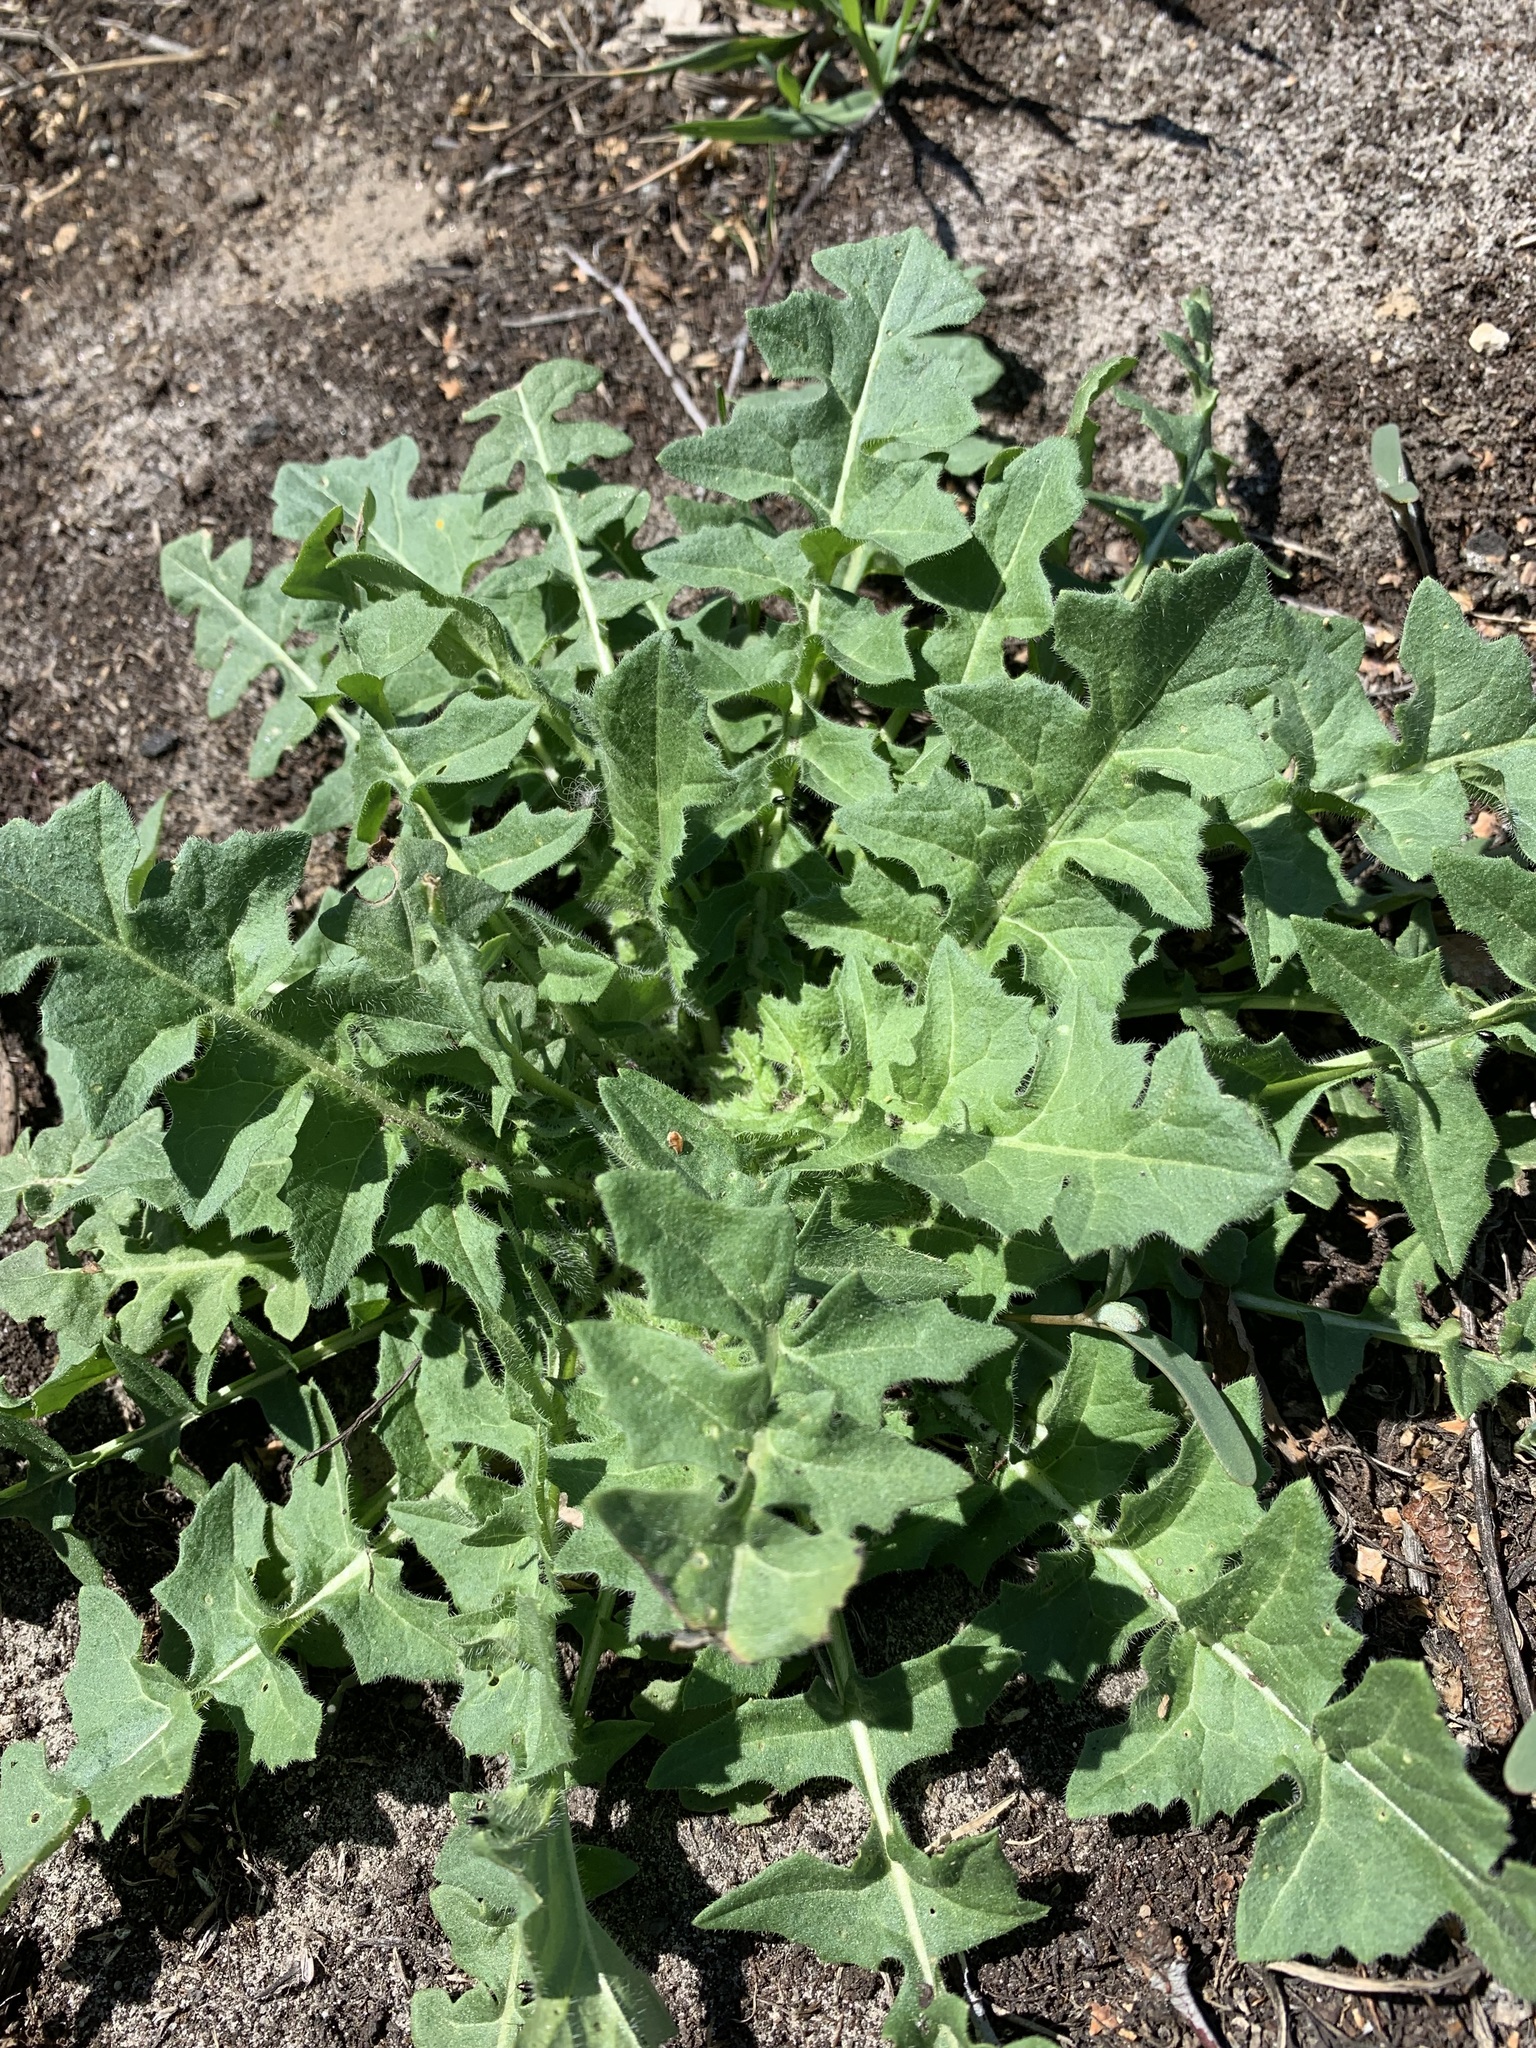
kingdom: Plantae
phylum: Tracheophyta
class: Magnoliopsida
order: Brassicales
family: Brassicaceae
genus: Sisymbrium
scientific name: Sisymbrium loeselii
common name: False london-rocket
